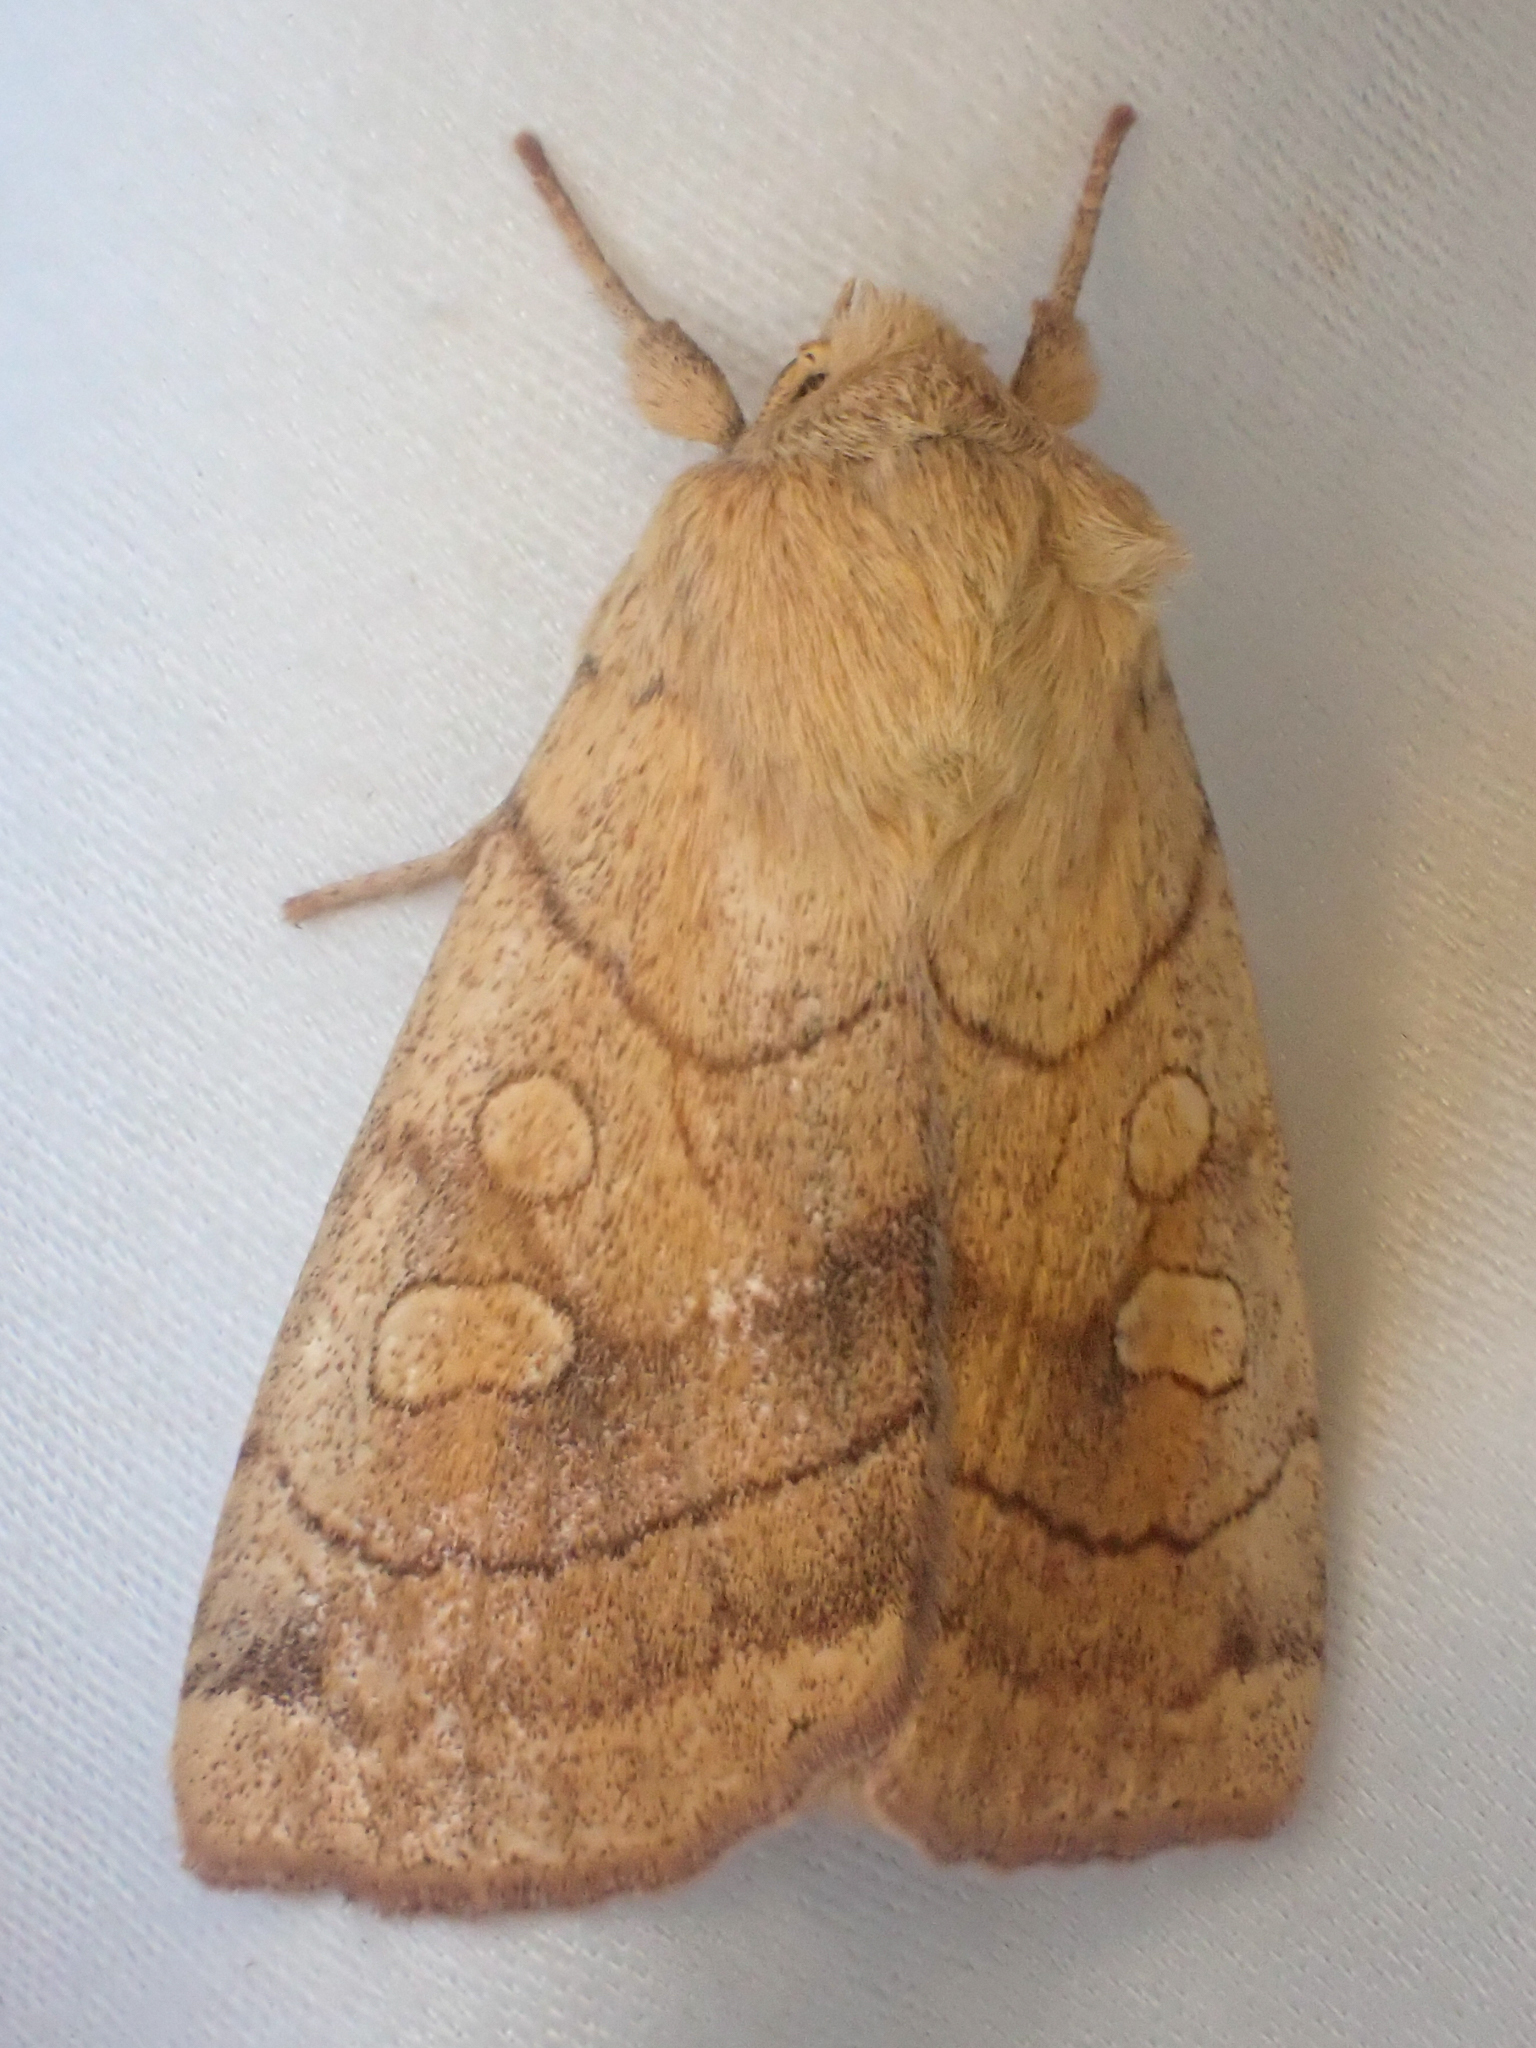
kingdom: Animalia
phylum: Arthropoda
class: Insecta
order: Lepidoptera
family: Noctuidae
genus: Enargia
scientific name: Enargia decolor
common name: Aspen twoleaf tier moth
